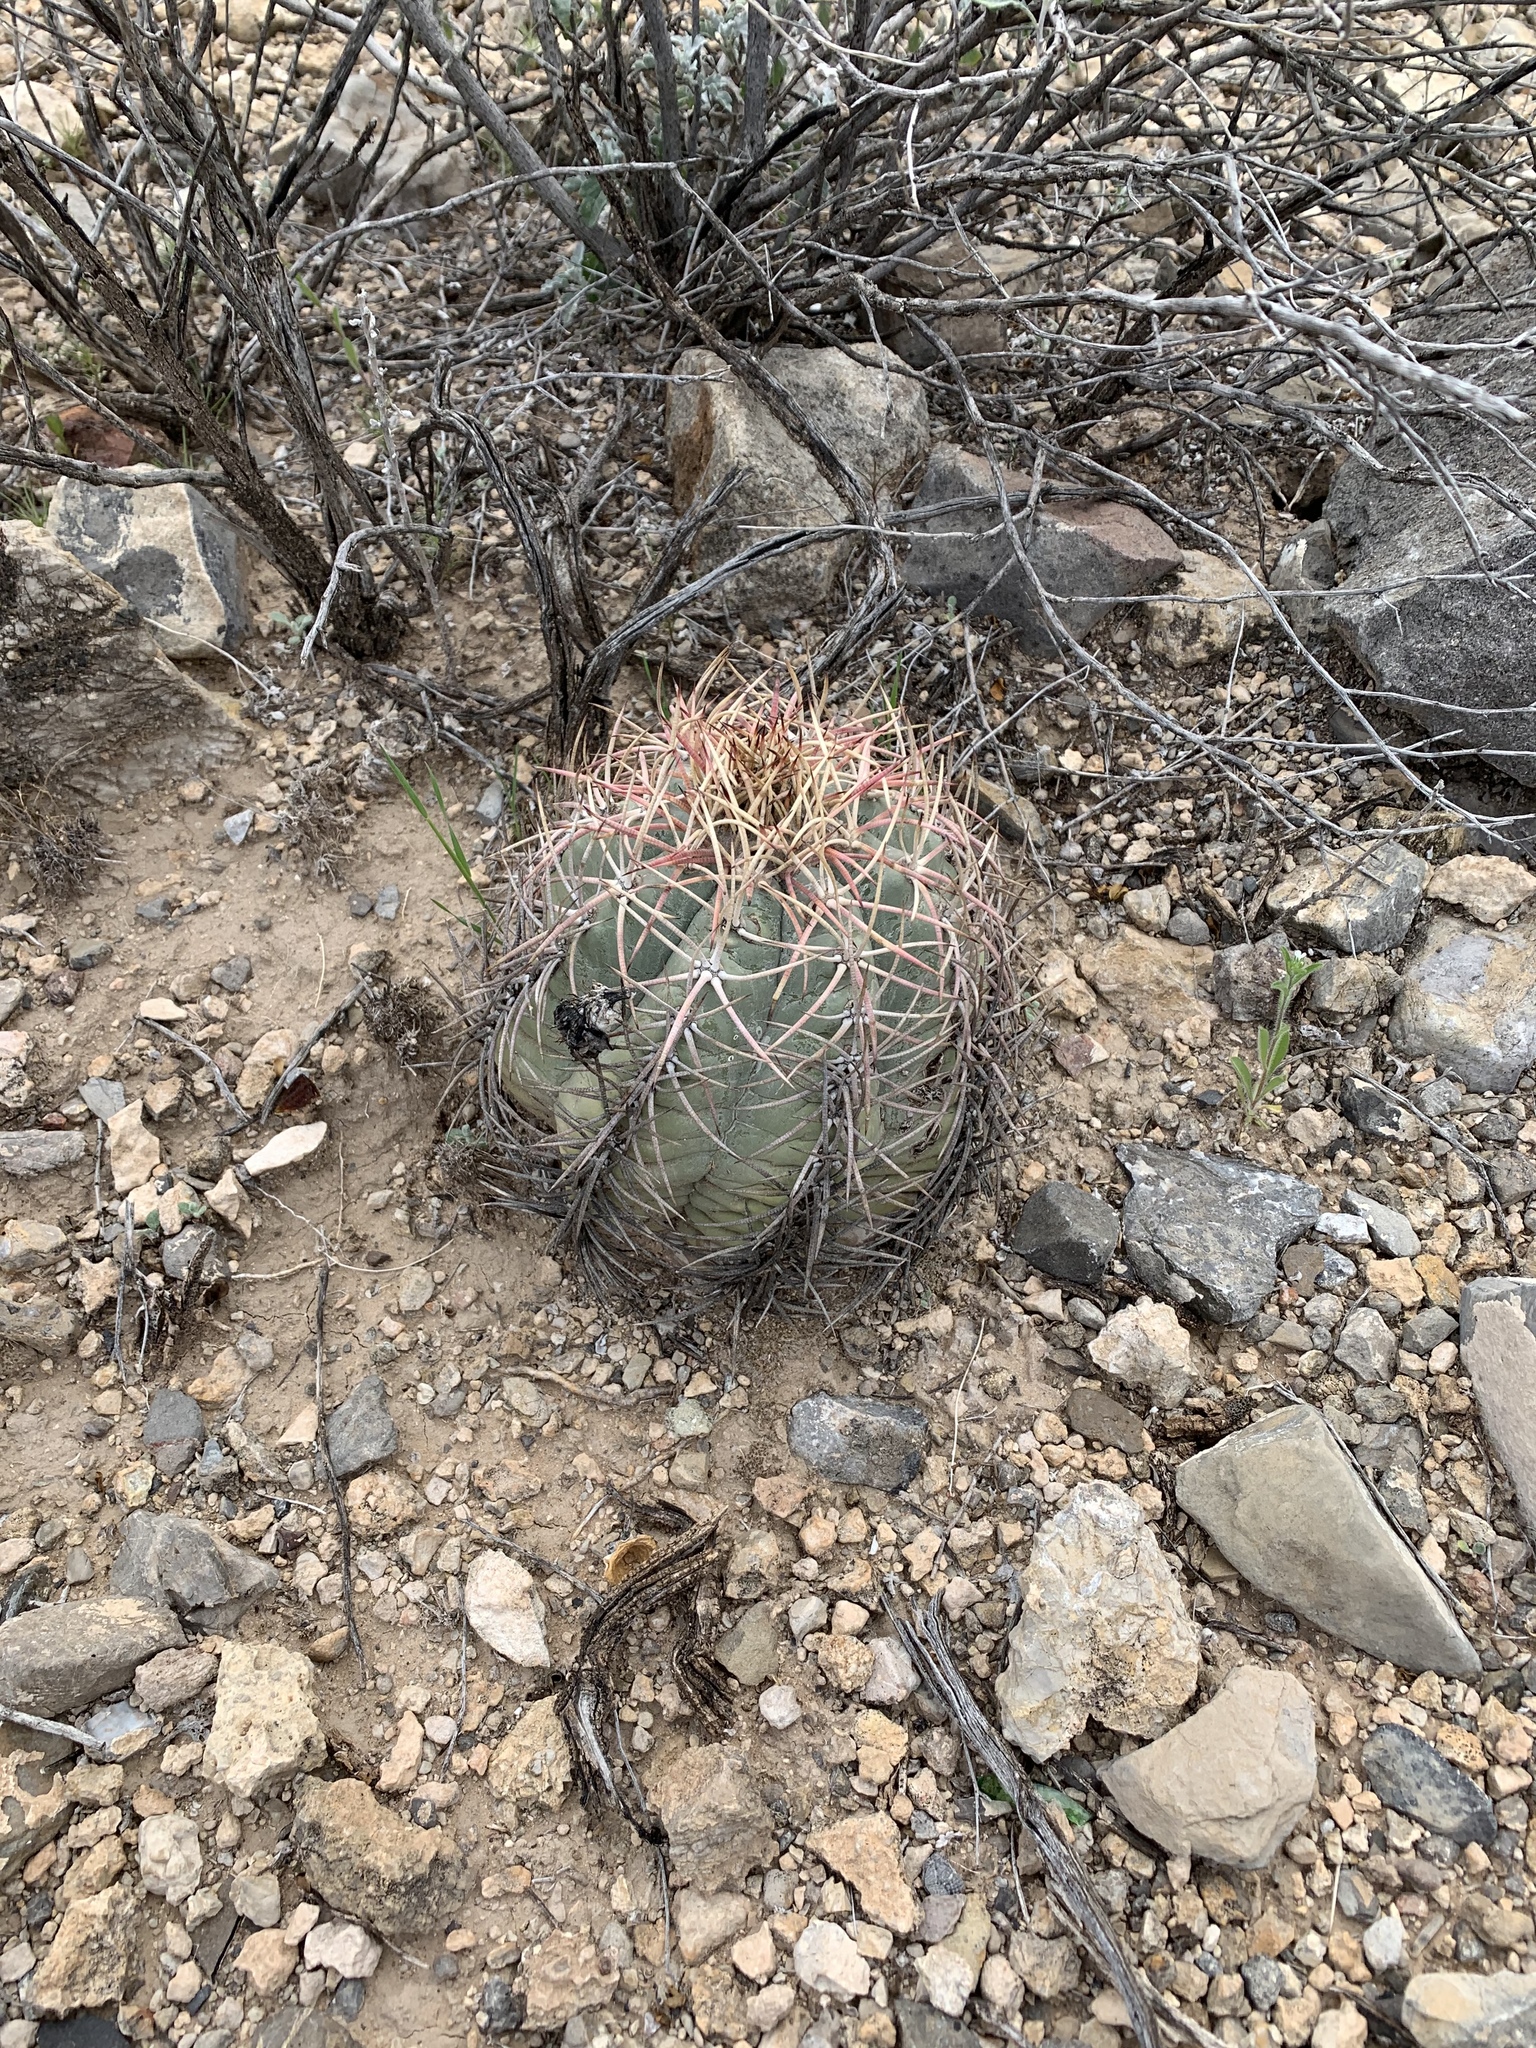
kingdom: Plantae
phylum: Tracheophyta
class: Magnoliopsida
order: Caryophyllales
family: Cactaceae
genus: Echinocactus
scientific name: Echinocactus horizonthalonius
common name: Devilshead
